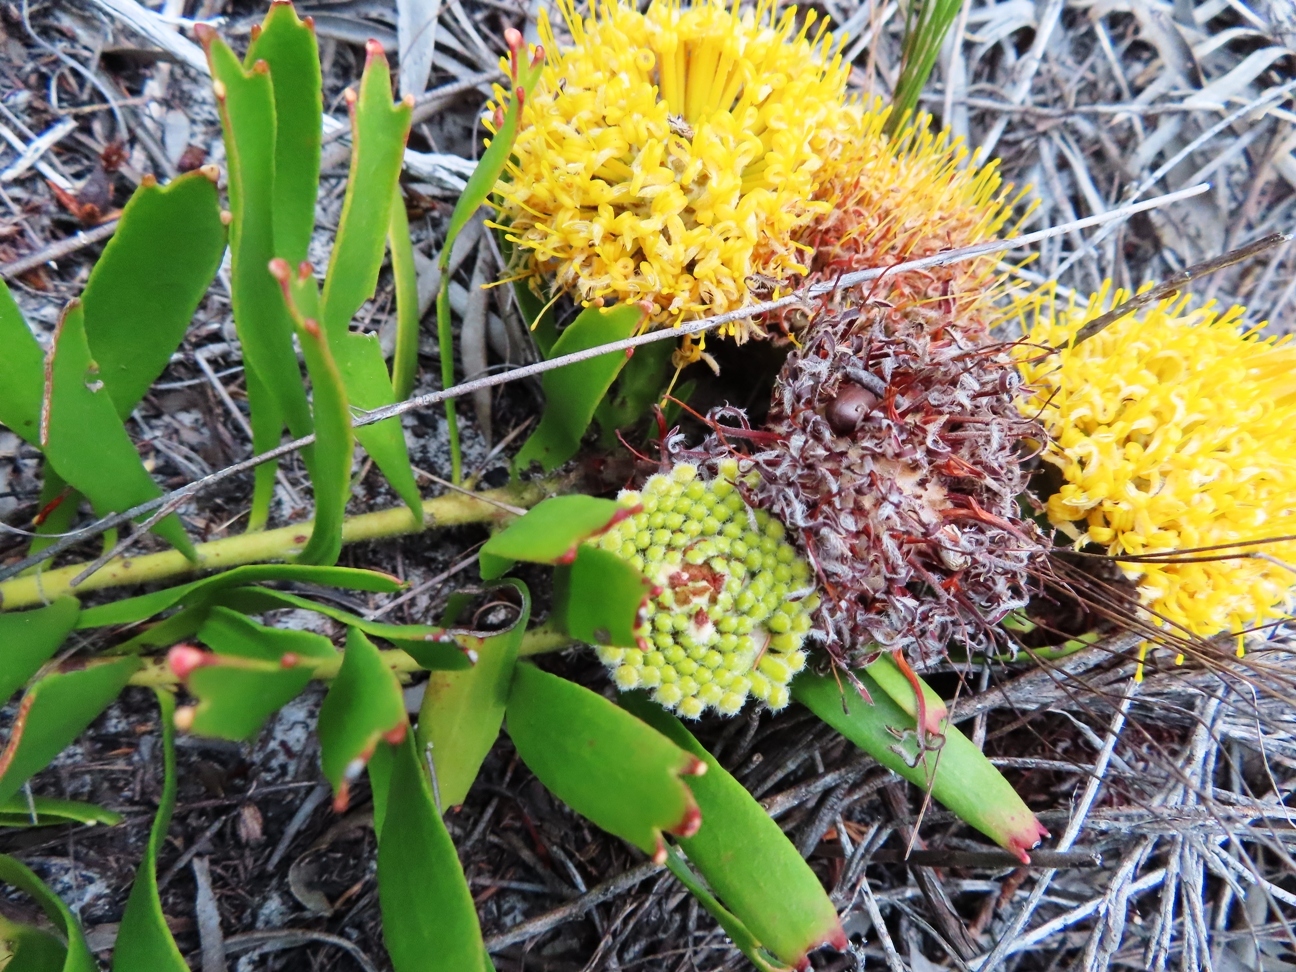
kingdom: Plantae
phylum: Tracheophyta
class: Magnoliopsida
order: Proteales
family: Proteaceae
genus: Leucospermum
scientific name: Leucospermum hypophyllocarpodendron
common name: Snakestem pincushion
